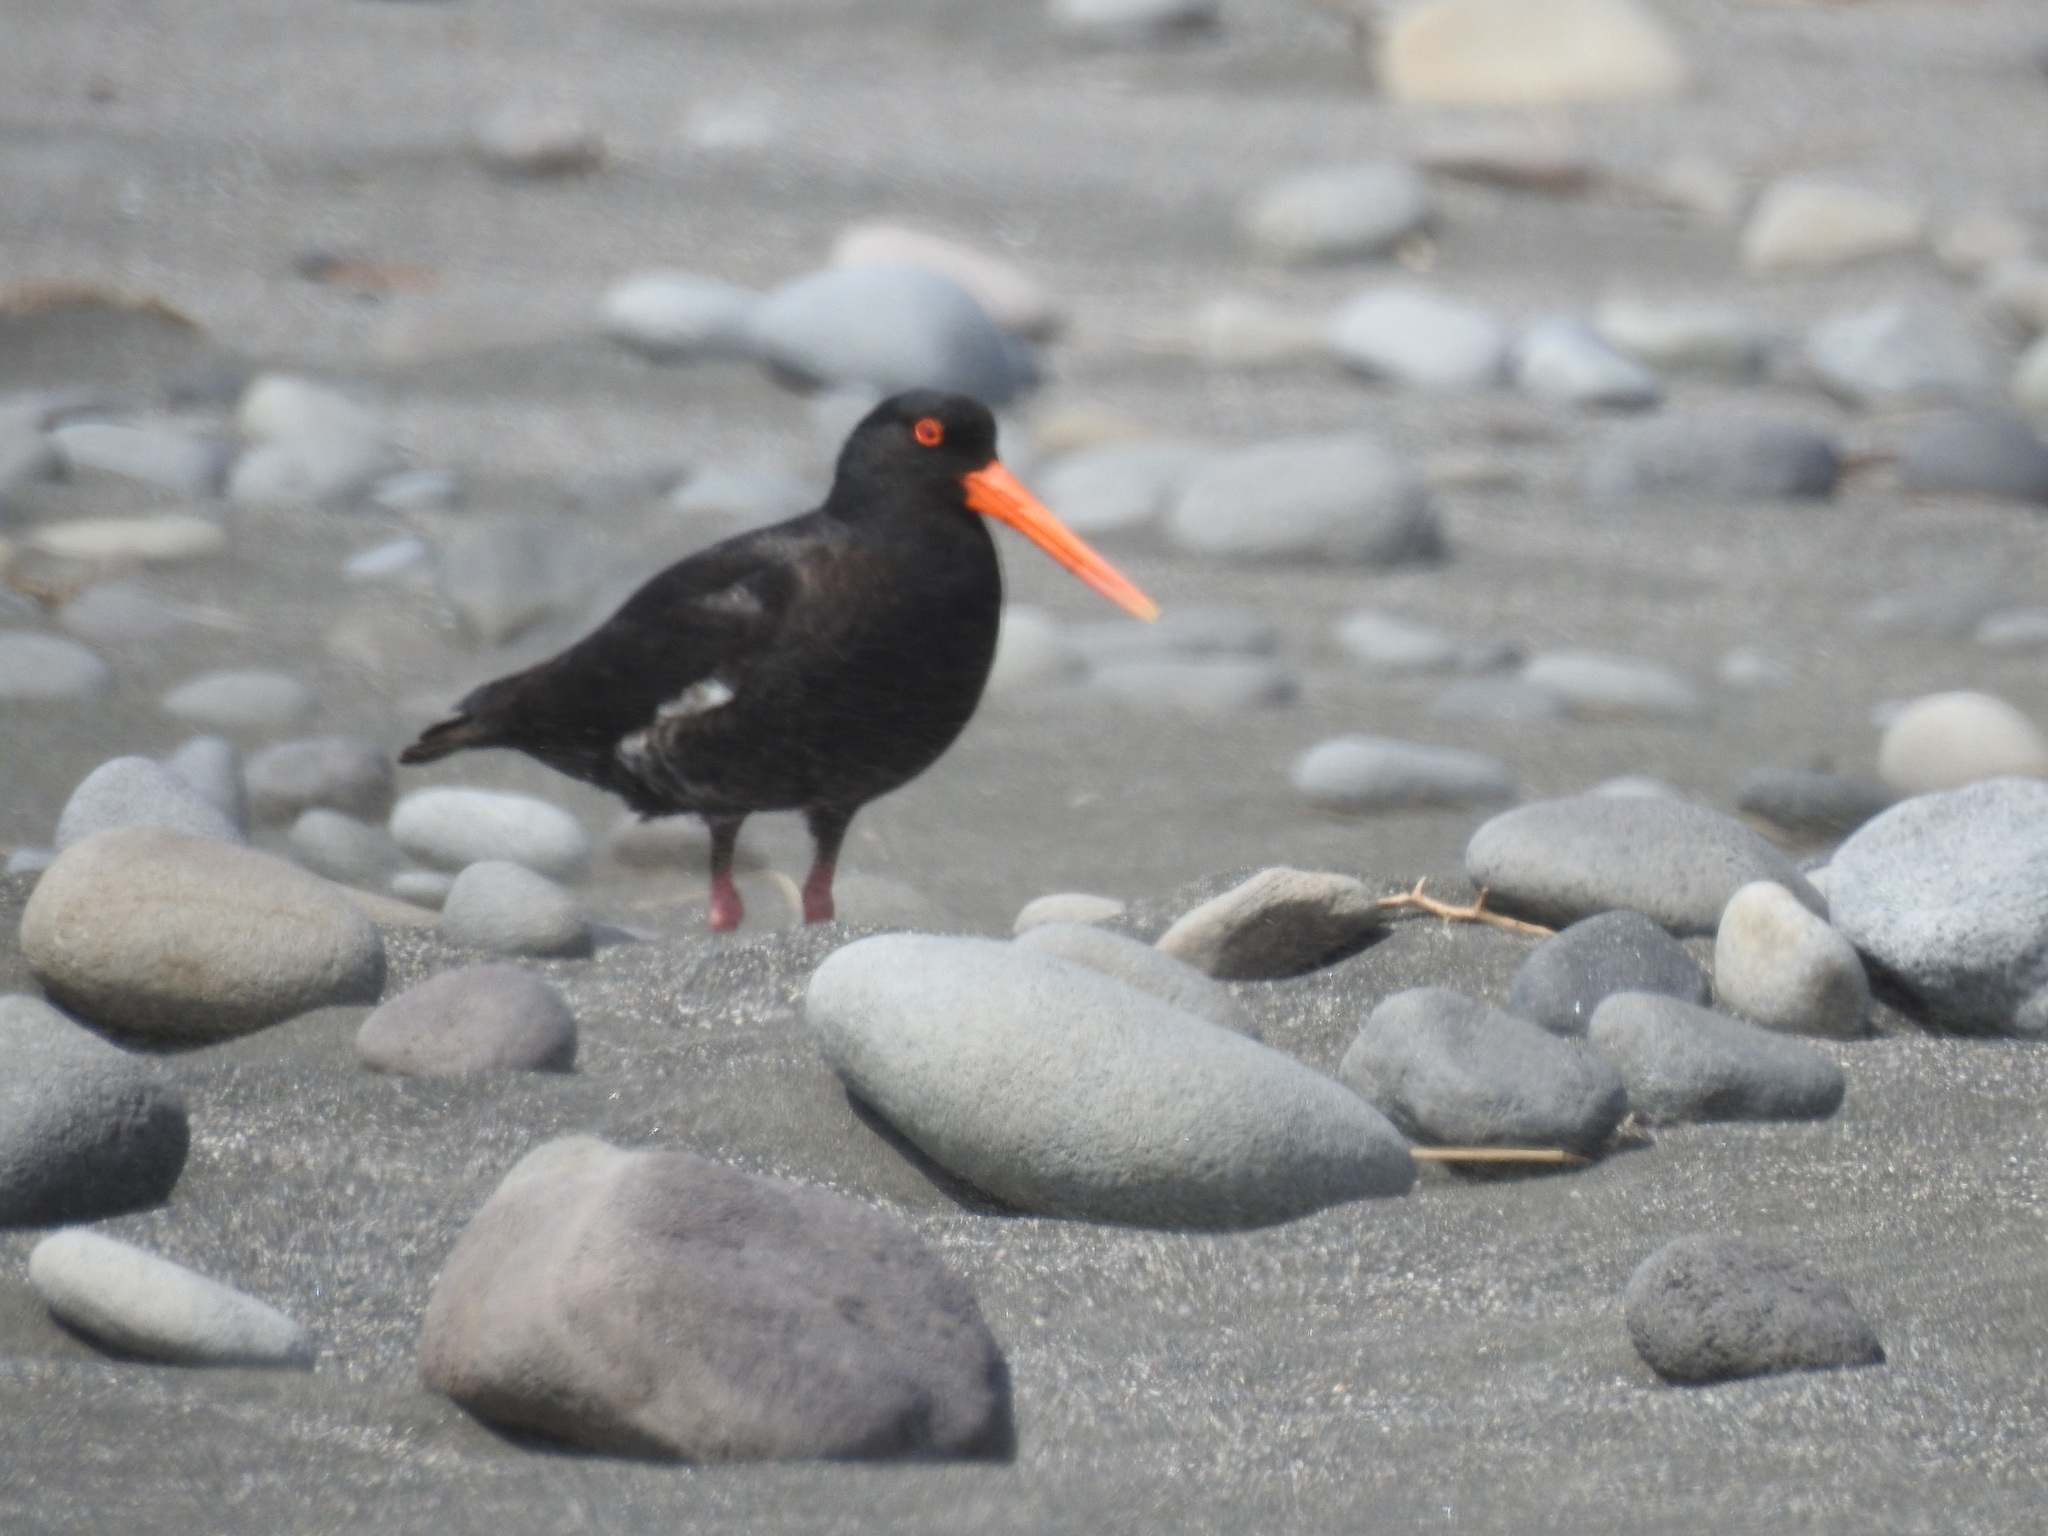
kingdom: Animalia
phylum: Chordata
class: Aves
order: Charadriiformes
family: Haematopodidae
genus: Haematopus
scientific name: Haematopus unicolor
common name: Variable oystercatcher
